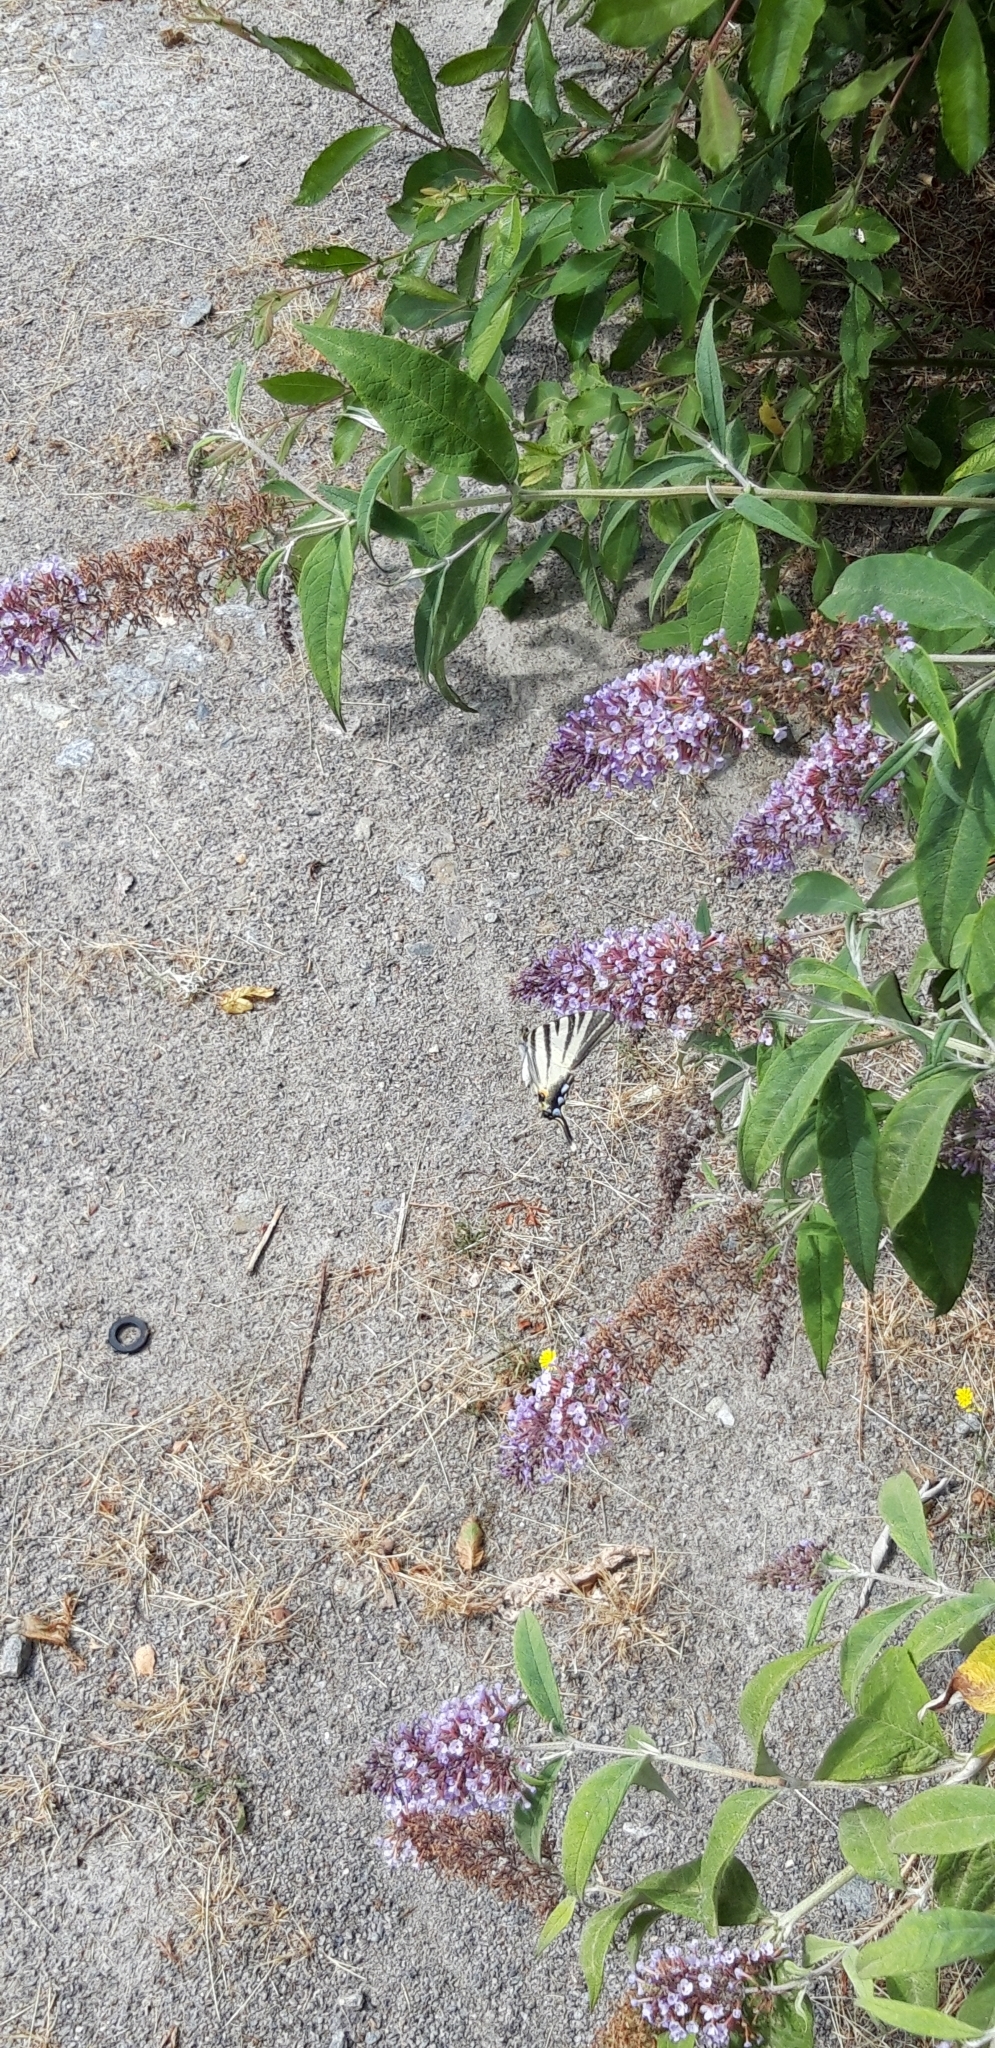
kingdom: Animalia
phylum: Arthropoda
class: Insecta
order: Lepidoptera
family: Papilionidae
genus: Iphiclides
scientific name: Iphiclides podalirius
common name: Scarce swallowtail
